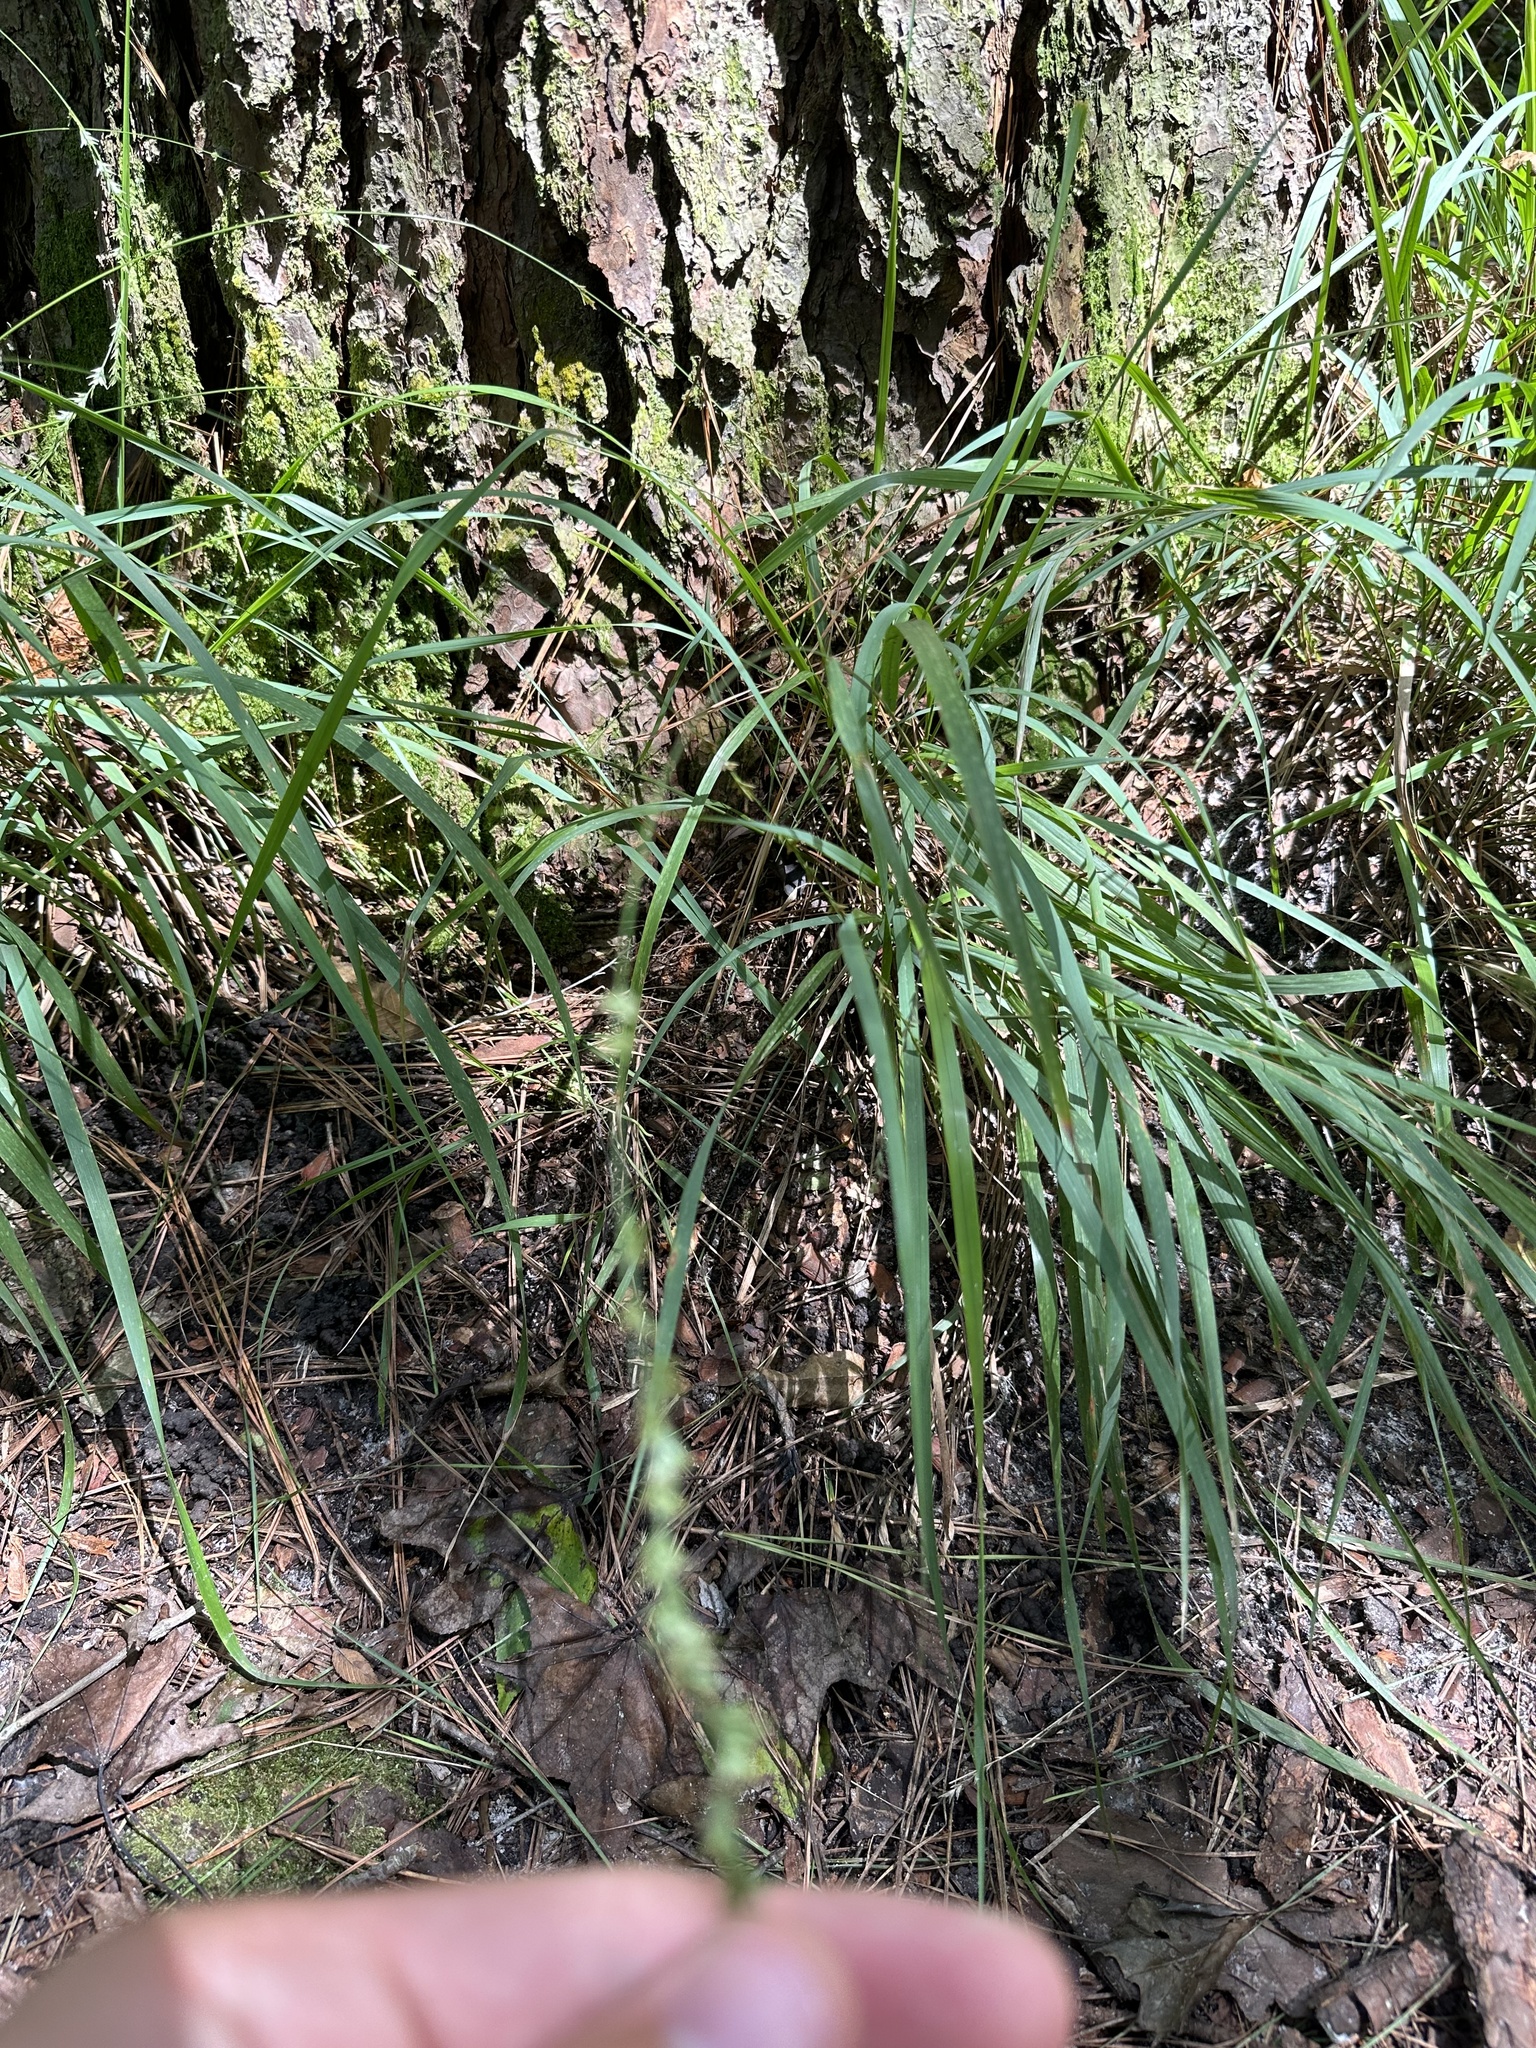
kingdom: Plantae
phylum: Tracheophyta
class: Liliopsida
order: Poales
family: Poaceae
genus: Chasmanthium
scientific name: Chasmanthium nitidum
